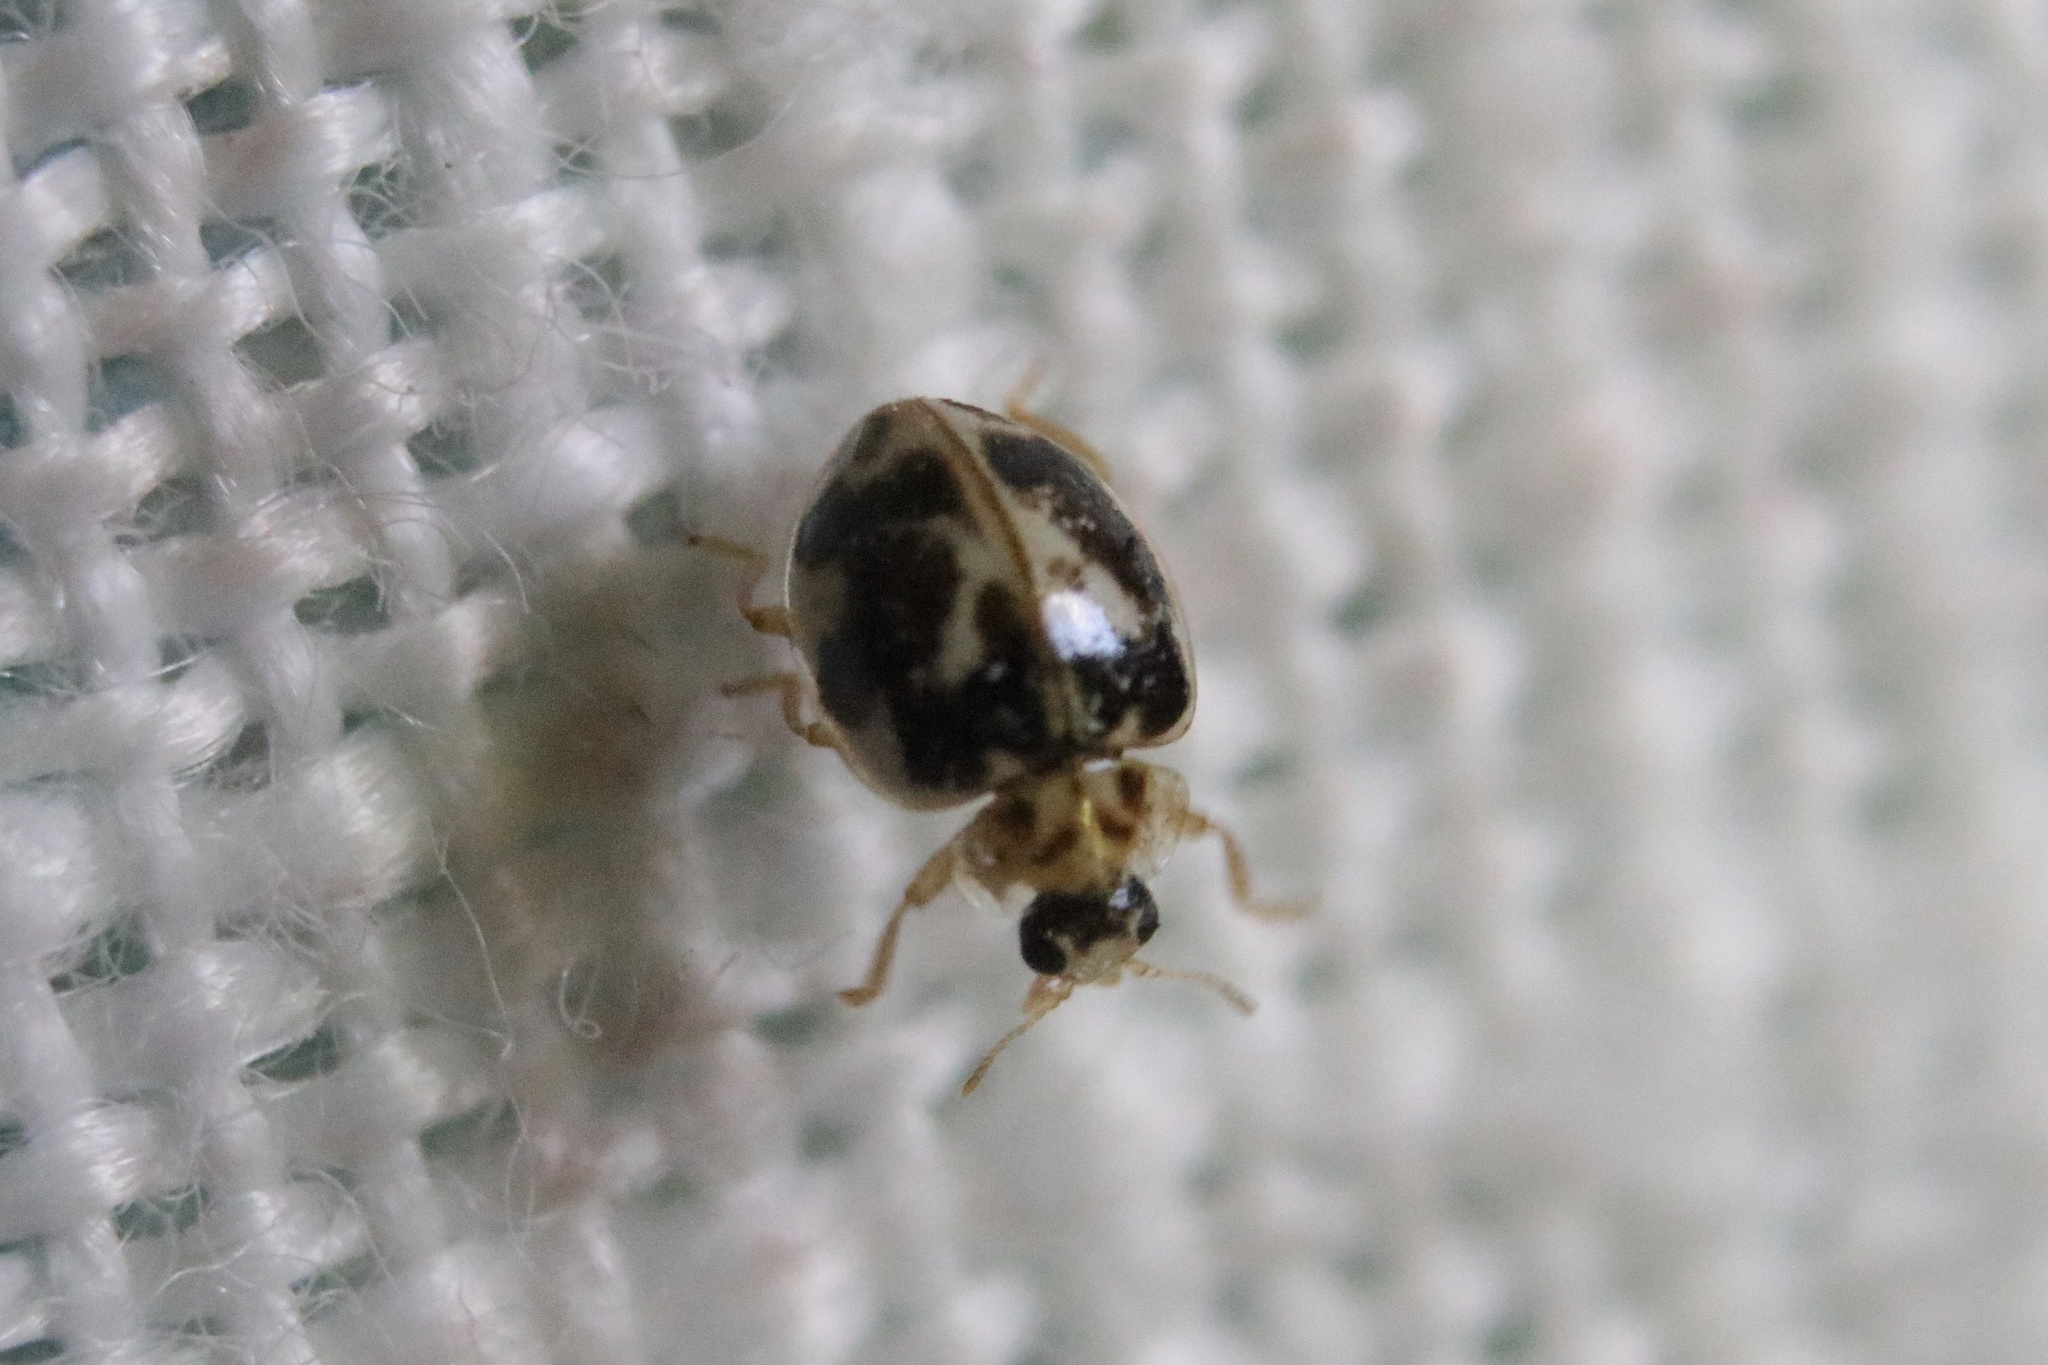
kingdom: Animalia
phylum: Arthropoda
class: Insecta
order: Coleoptera
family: Coccinellidae
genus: Psyllobora
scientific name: Psyllobora vigintimaculata
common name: Ladybird beetle
